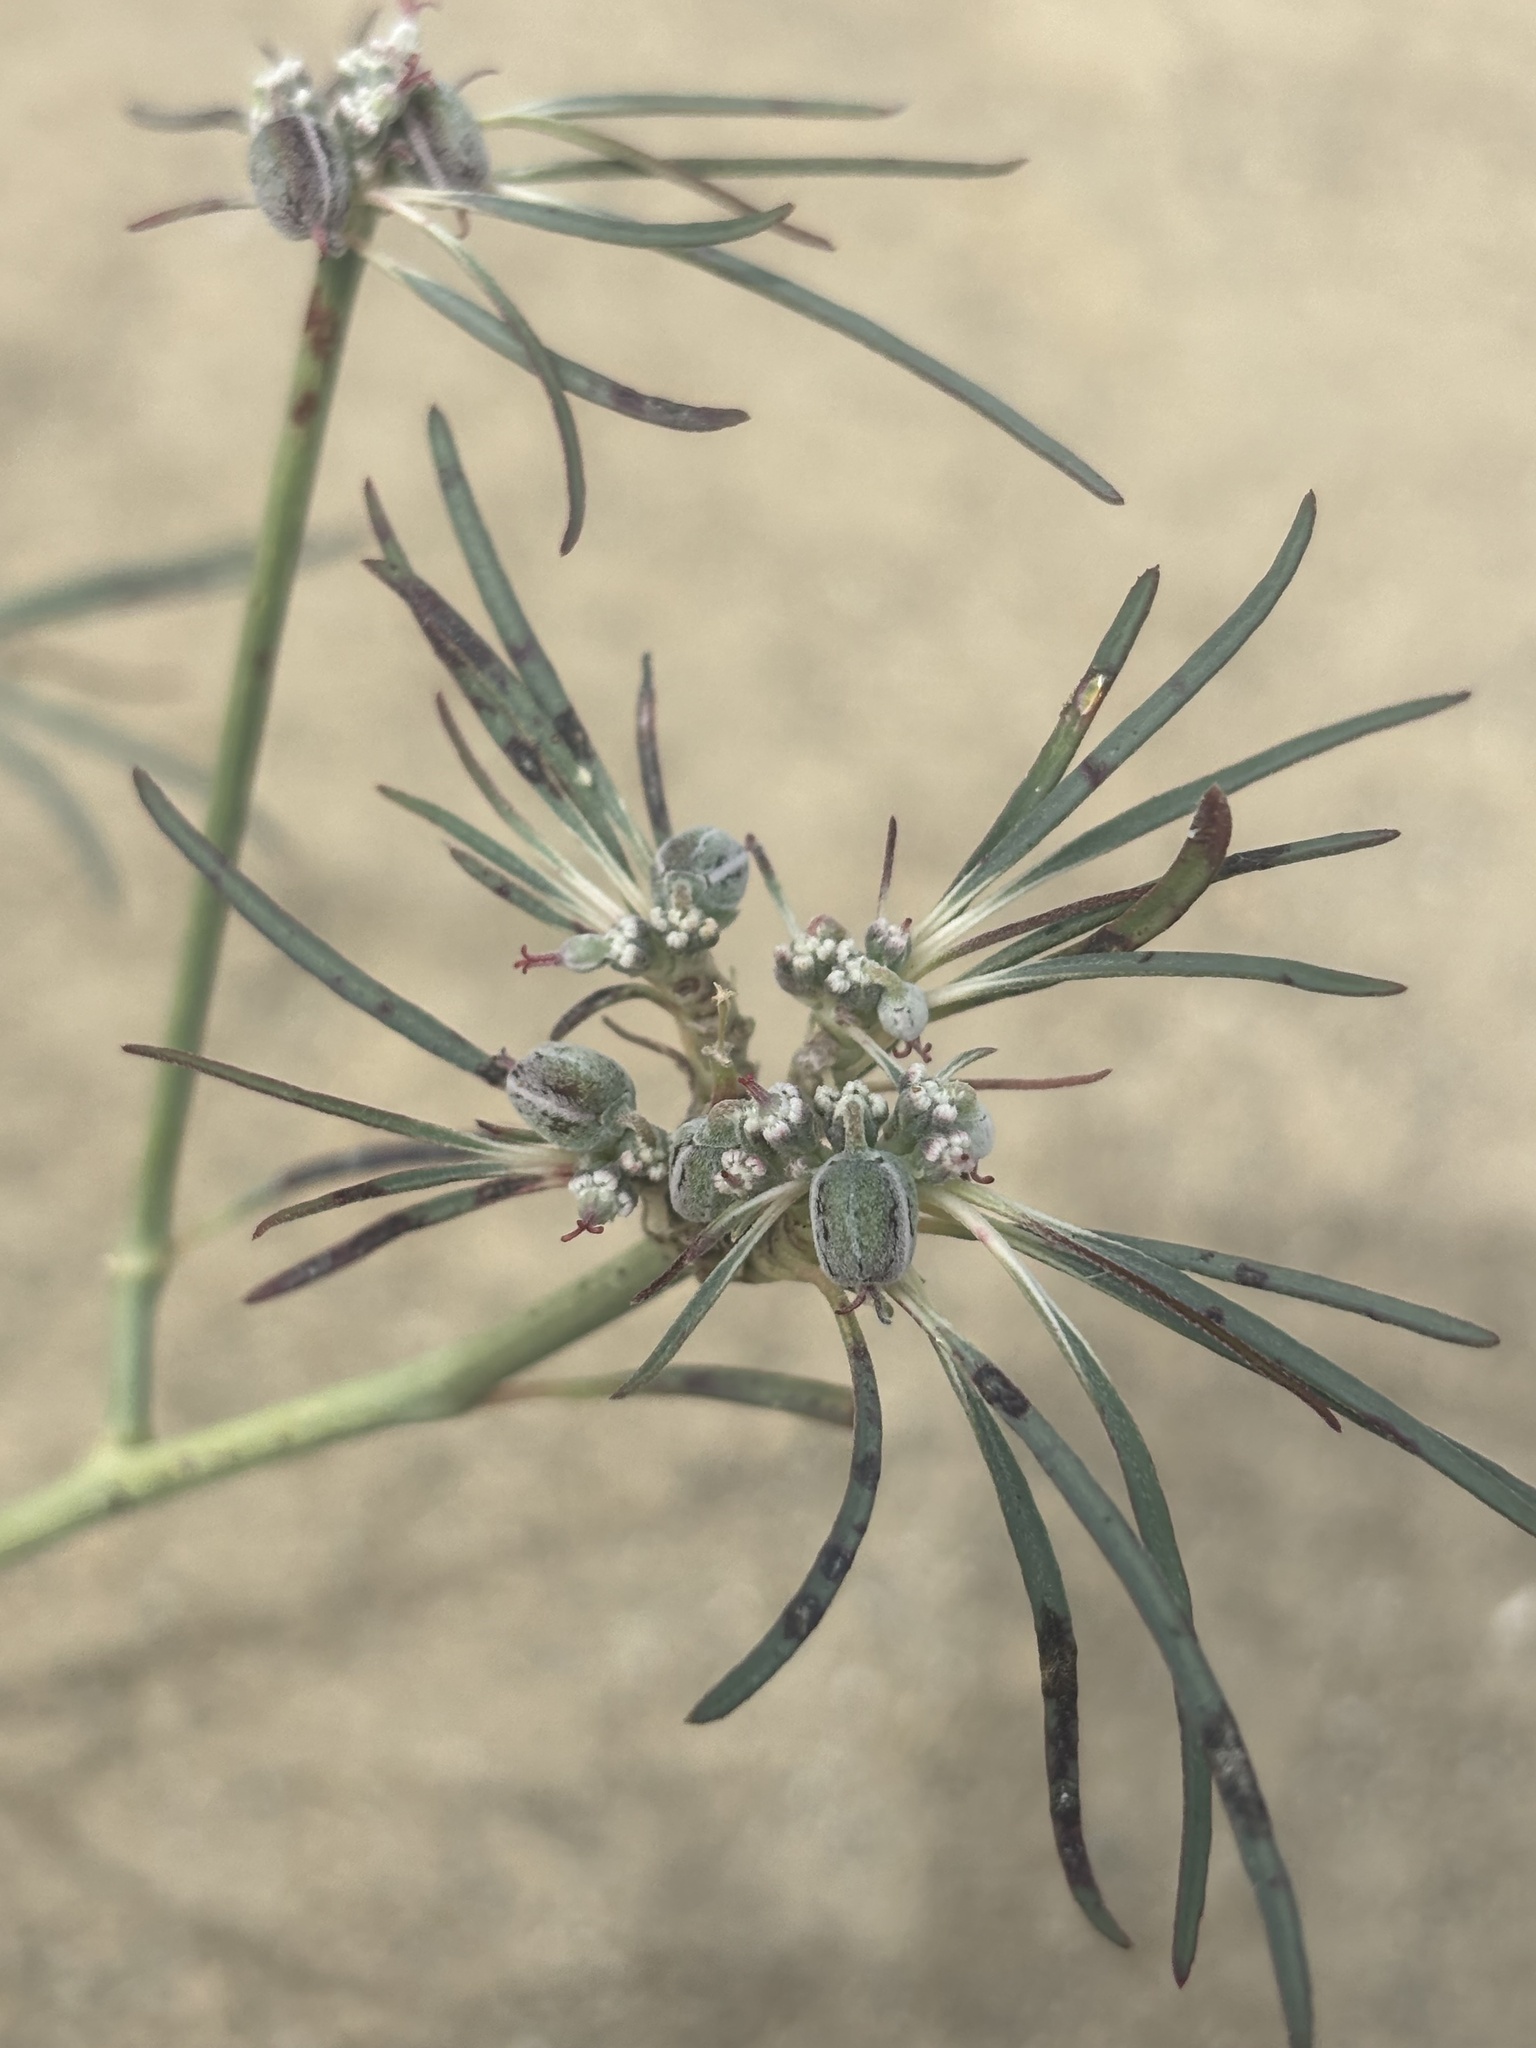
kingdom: Plantae
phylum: Tracheophyta
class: Magnoliopsida
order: Malpighiales
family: Euphorbiaceae
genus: Euphorbia
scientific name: Euphorbia eriantha
